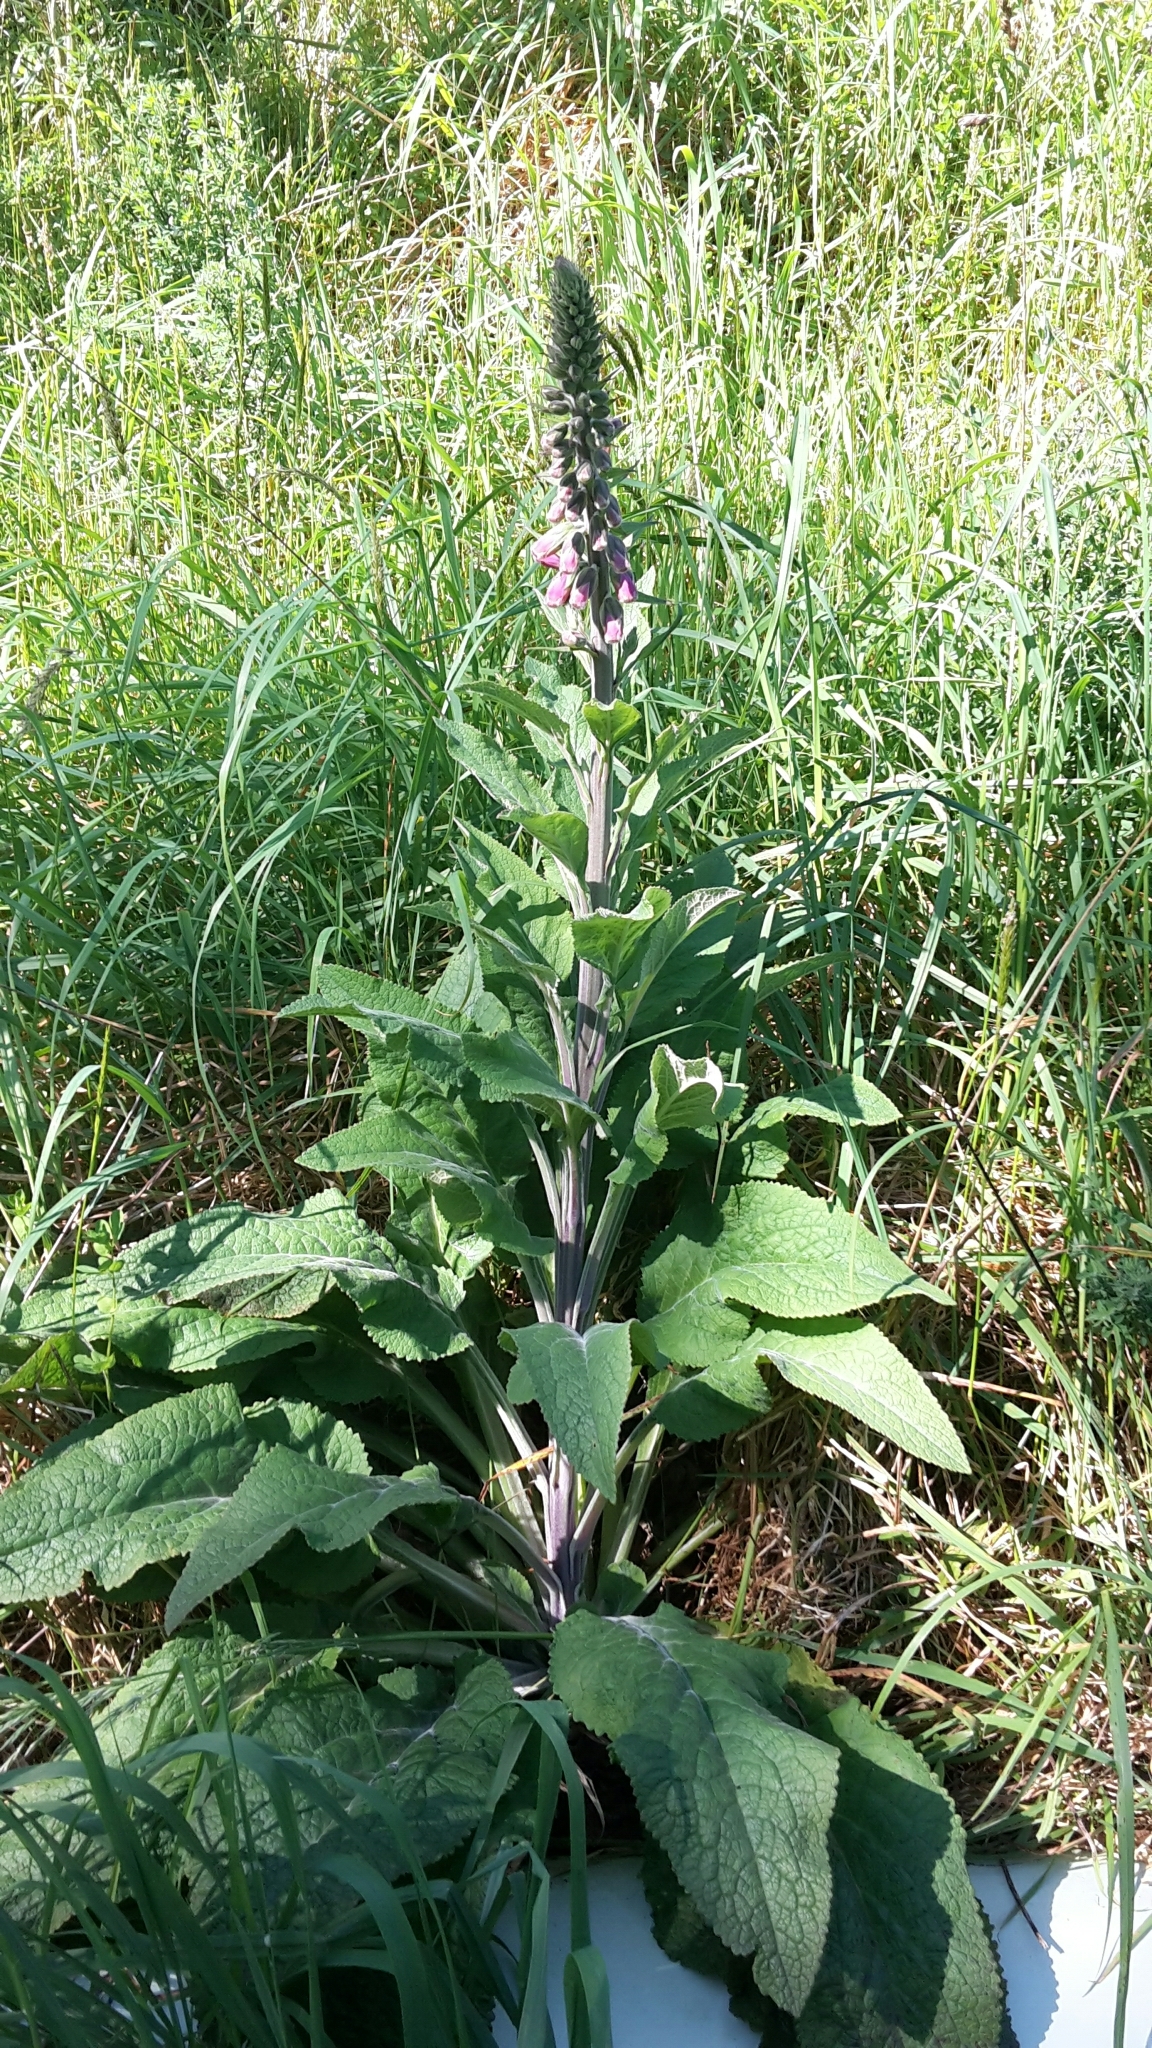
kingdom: Plantae
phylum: Tracheophyta
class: Magnoliopsida
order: Lamiales
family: Plantaginaceae
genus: Digitalis
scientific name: Digitalis purpurea
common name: Foxglove
